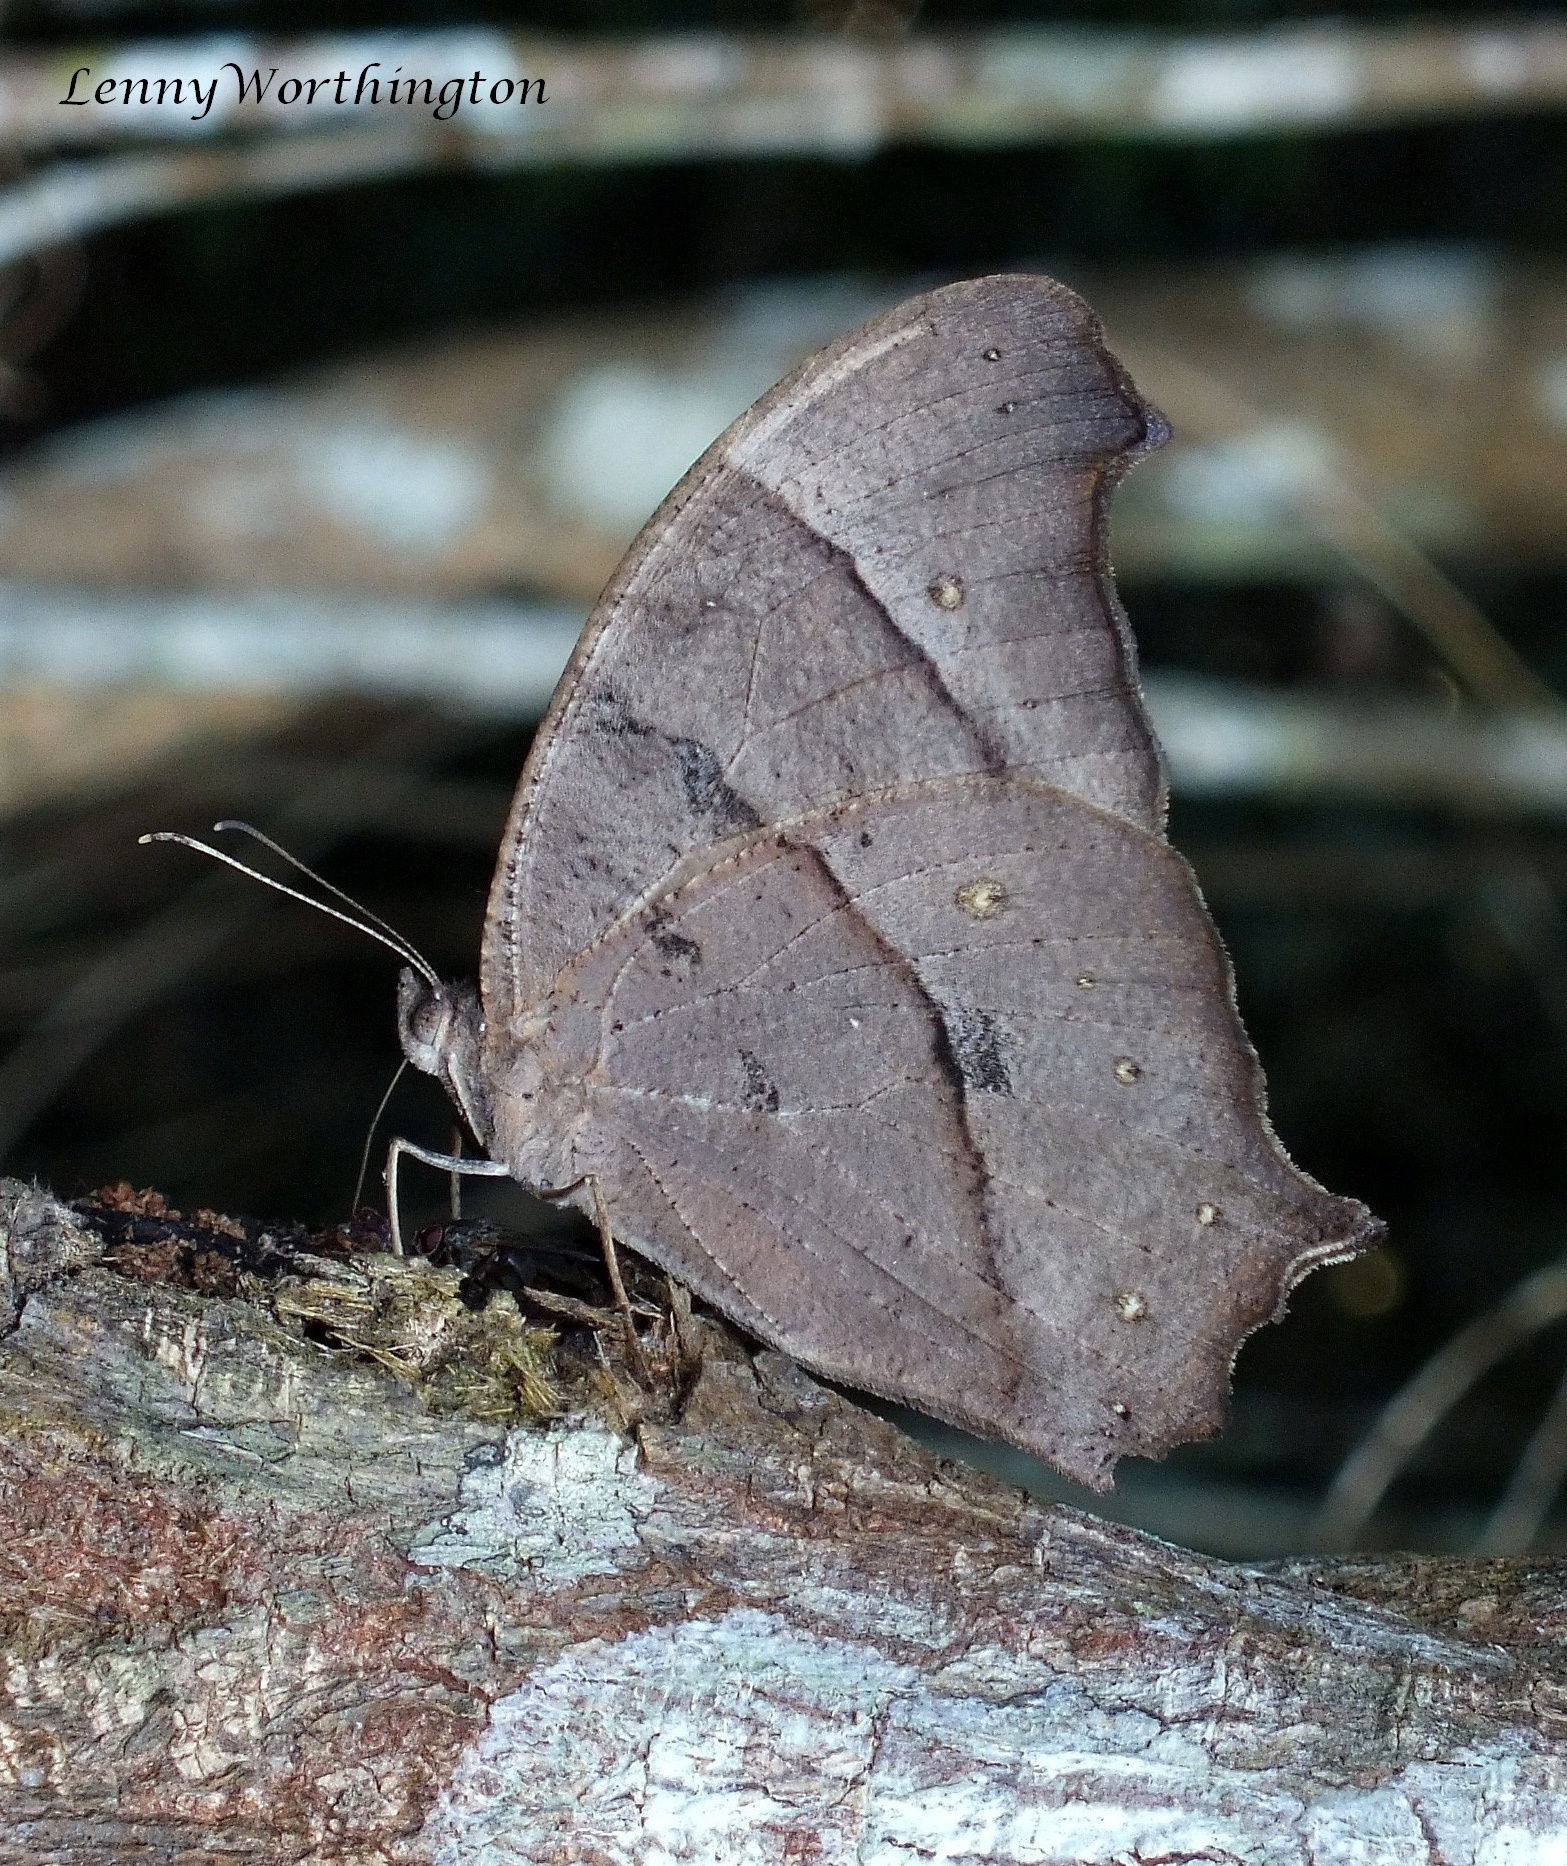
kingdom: Animalia
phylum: Arthropoda
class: Insecta
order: Lepidoptera
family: Nymphalidae
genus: Melanitis
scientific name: Melanitis phedima
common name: Dark evening brown
